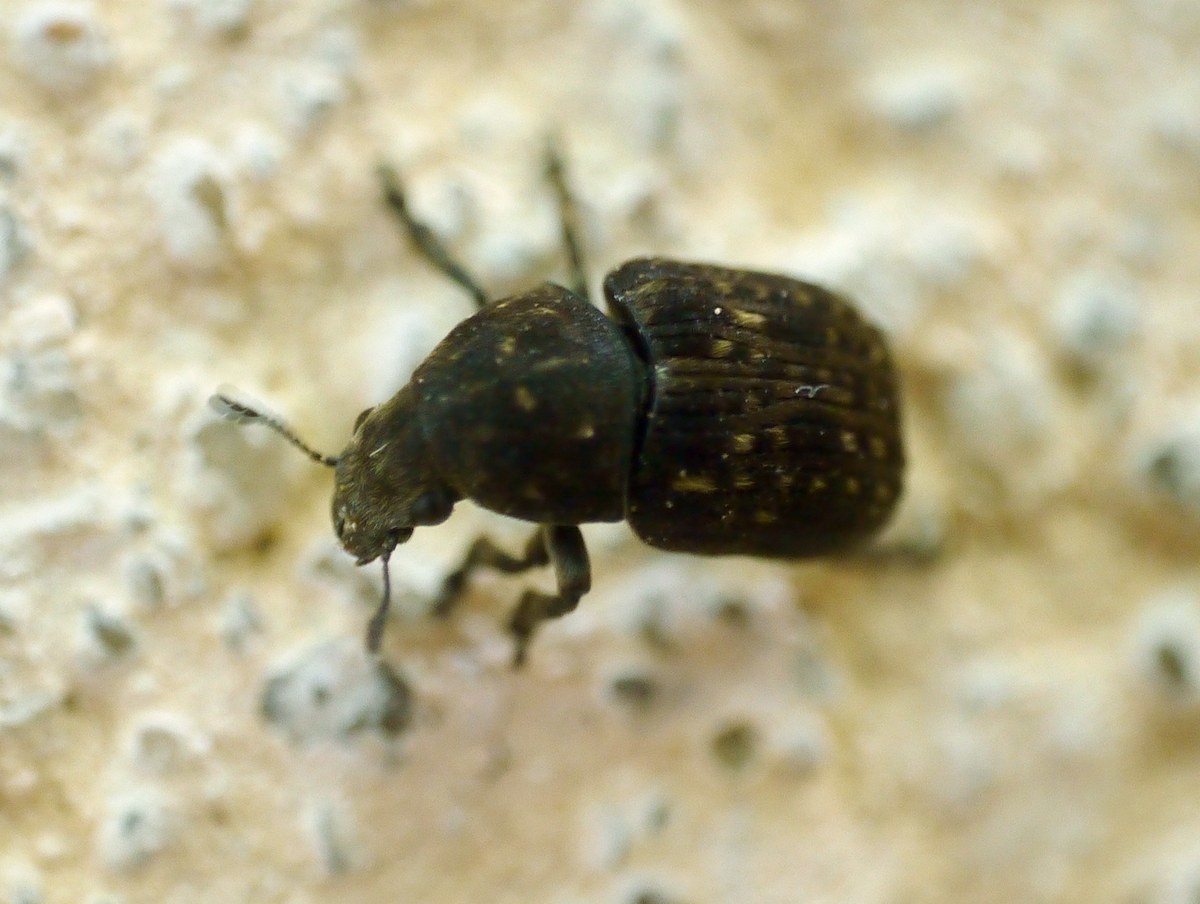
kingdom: Animalia
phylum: Arthropoda
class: Insecta
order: Coleoptera
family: Anthribidae
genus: Anthribus
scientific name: Anthribus nebulosus
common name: Fungus weevil
